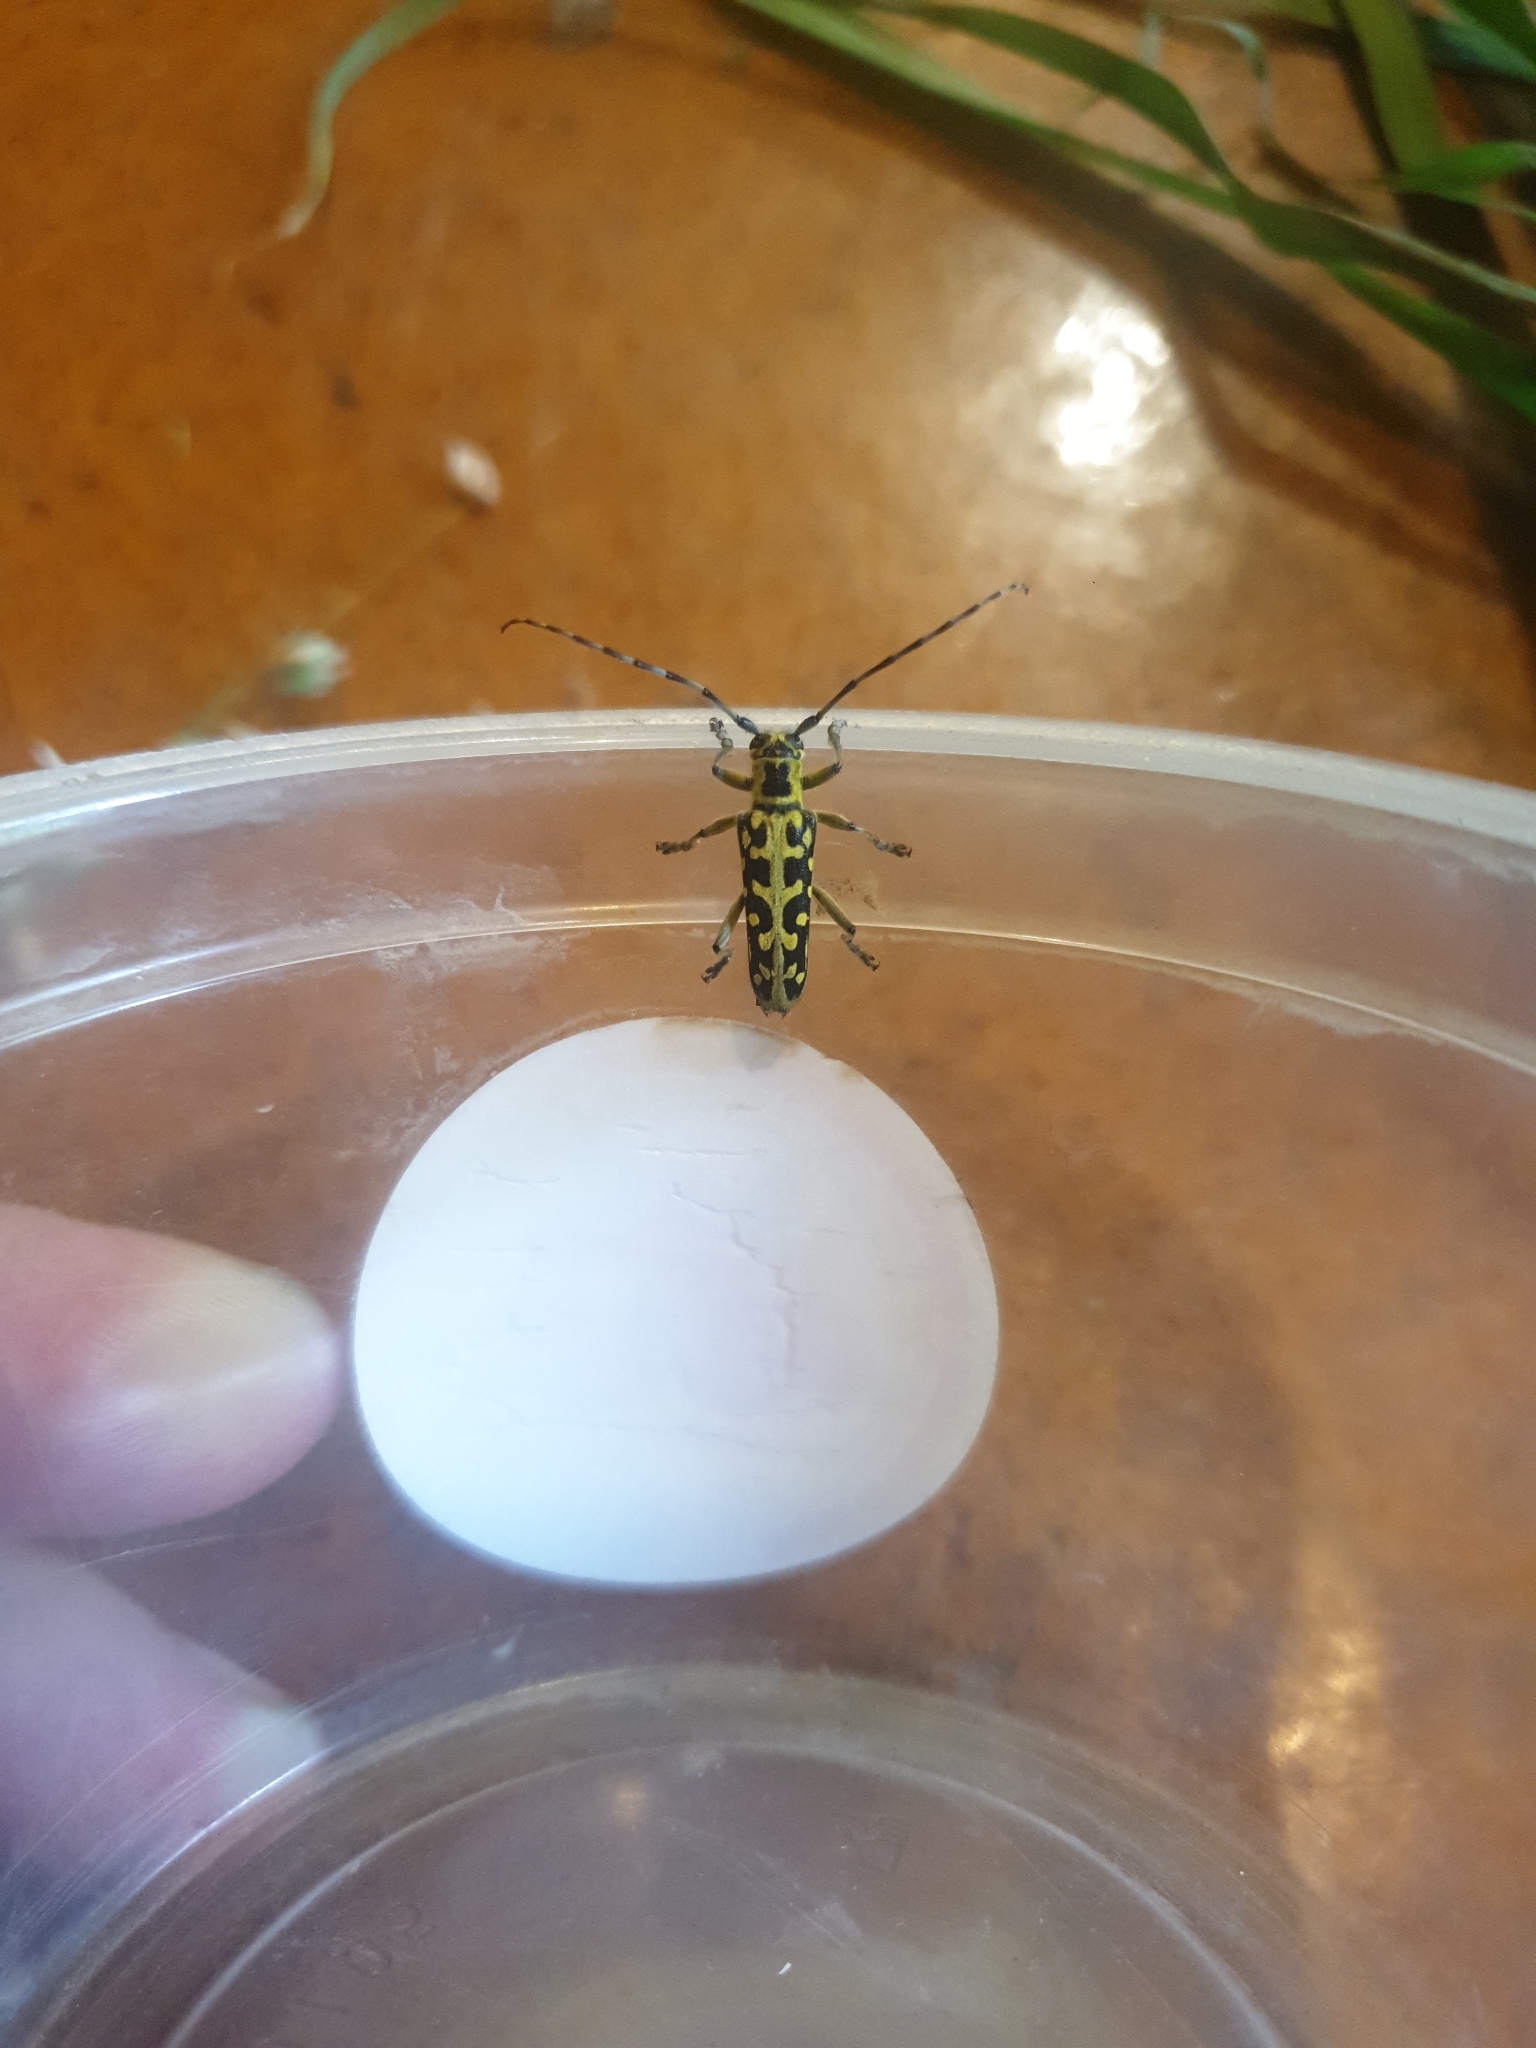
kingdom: Animalia
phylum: Arthropoda
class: Insecta
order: Coleoptera
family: Cerambycidae
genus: Saperda
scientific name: Saperda scalaris
